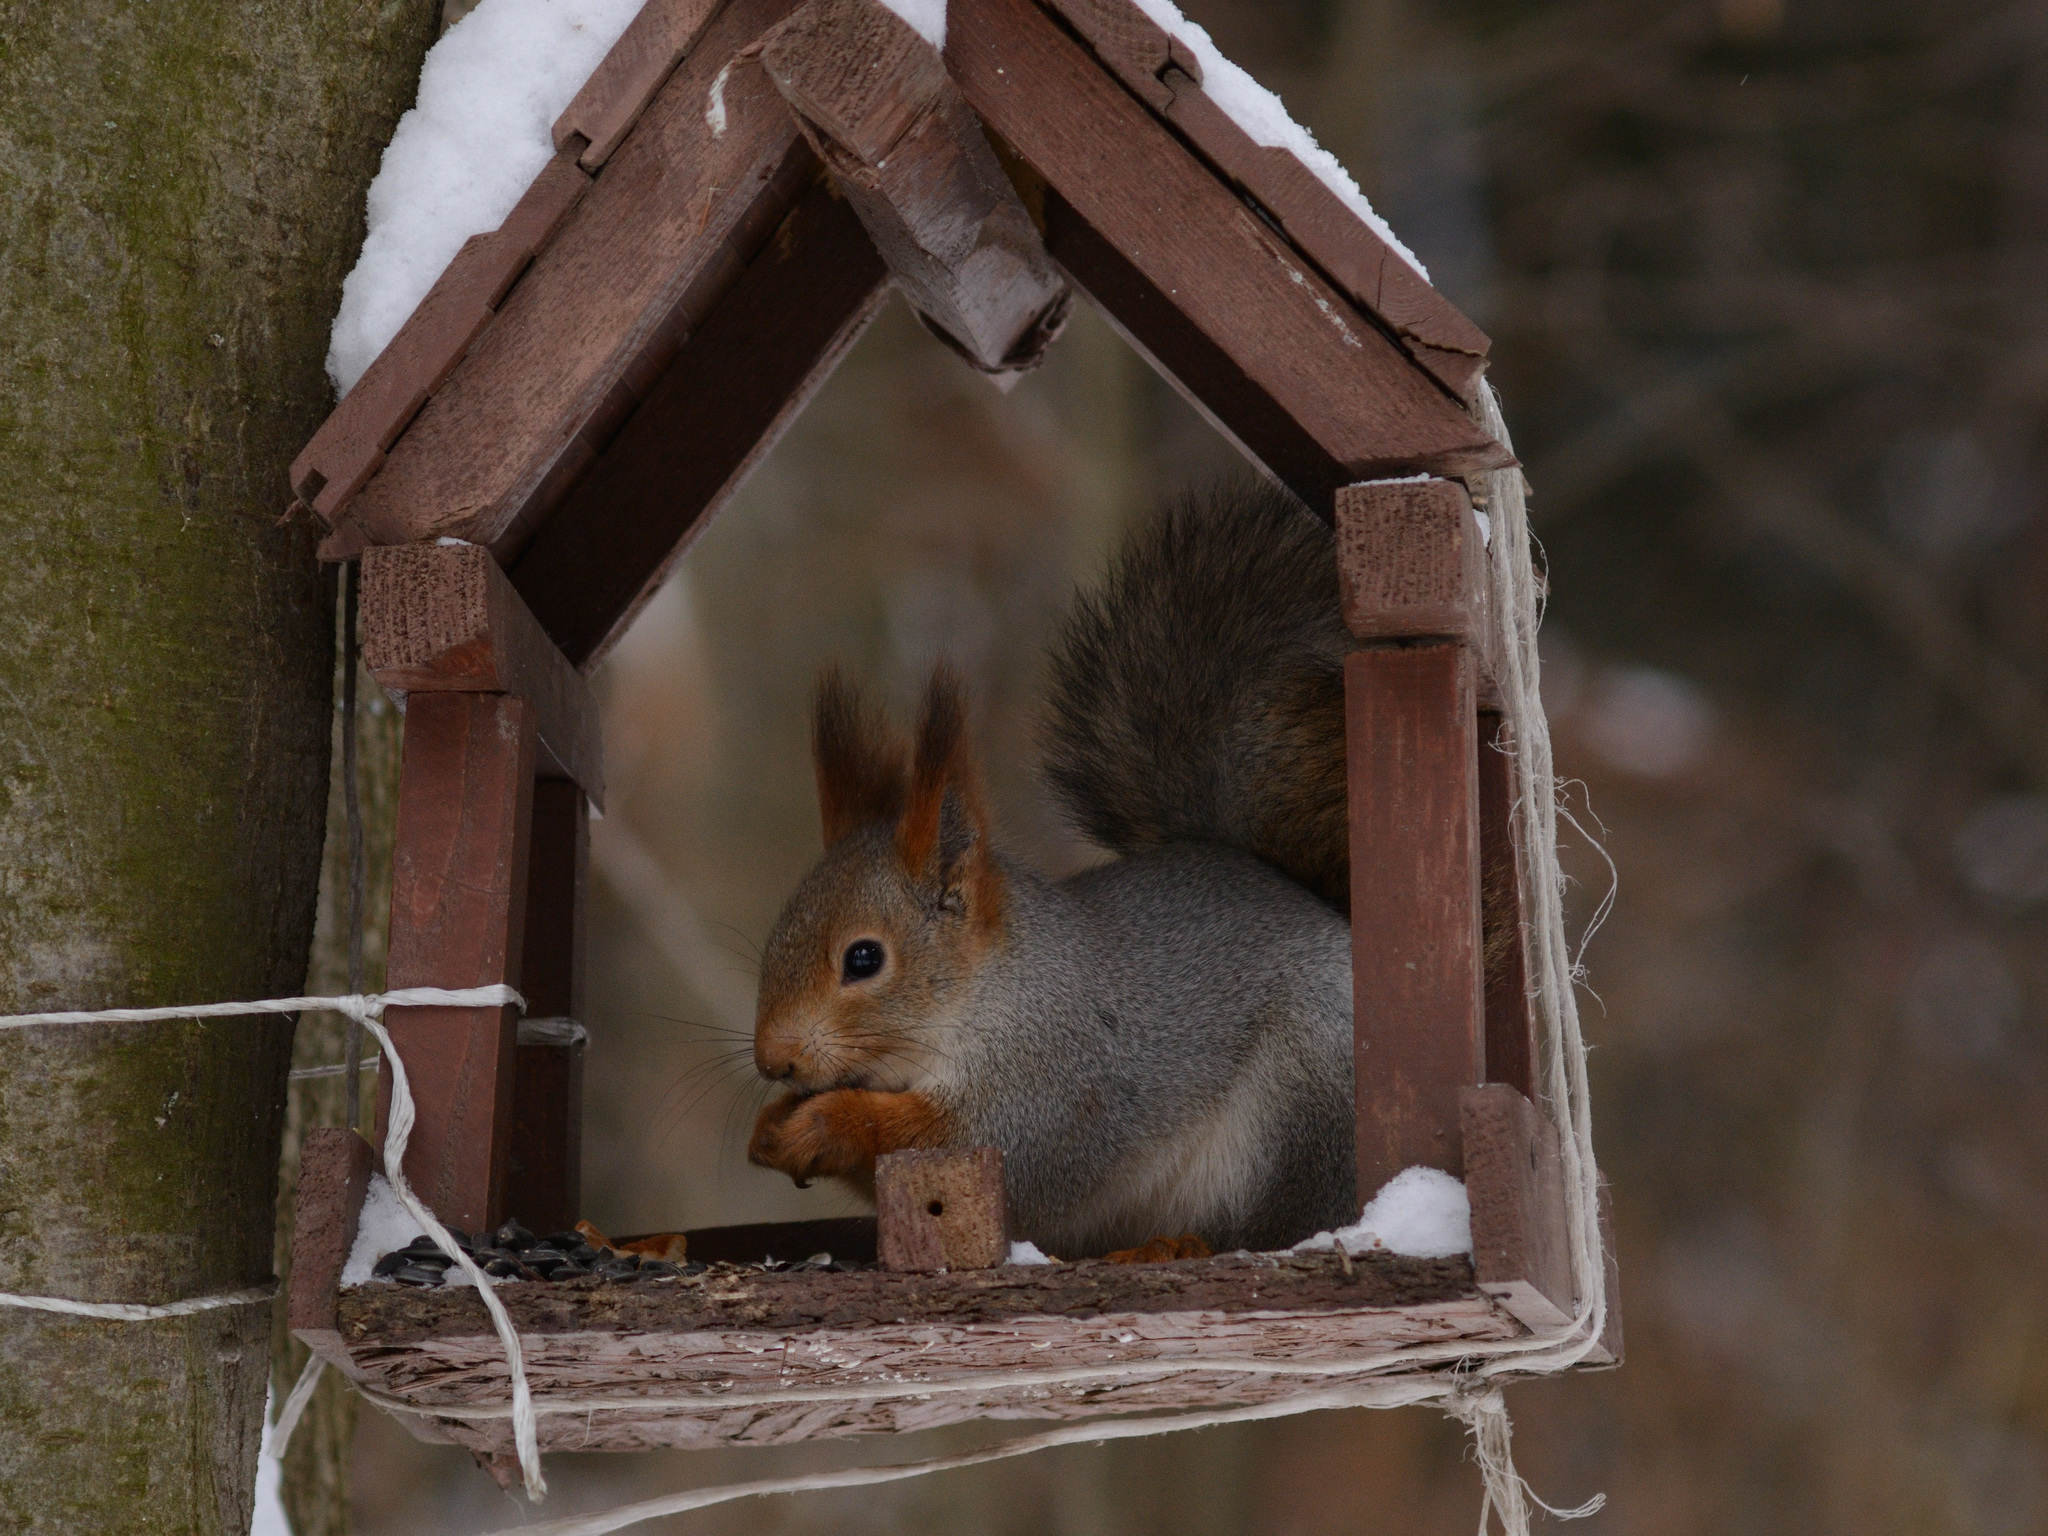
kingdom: Animalia
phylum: Chordata
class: Mammalia
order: Rodentia
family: Sciuridae
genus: Sciurus
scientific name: Sciurus vulgaris
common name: Eurasian red squirrel
